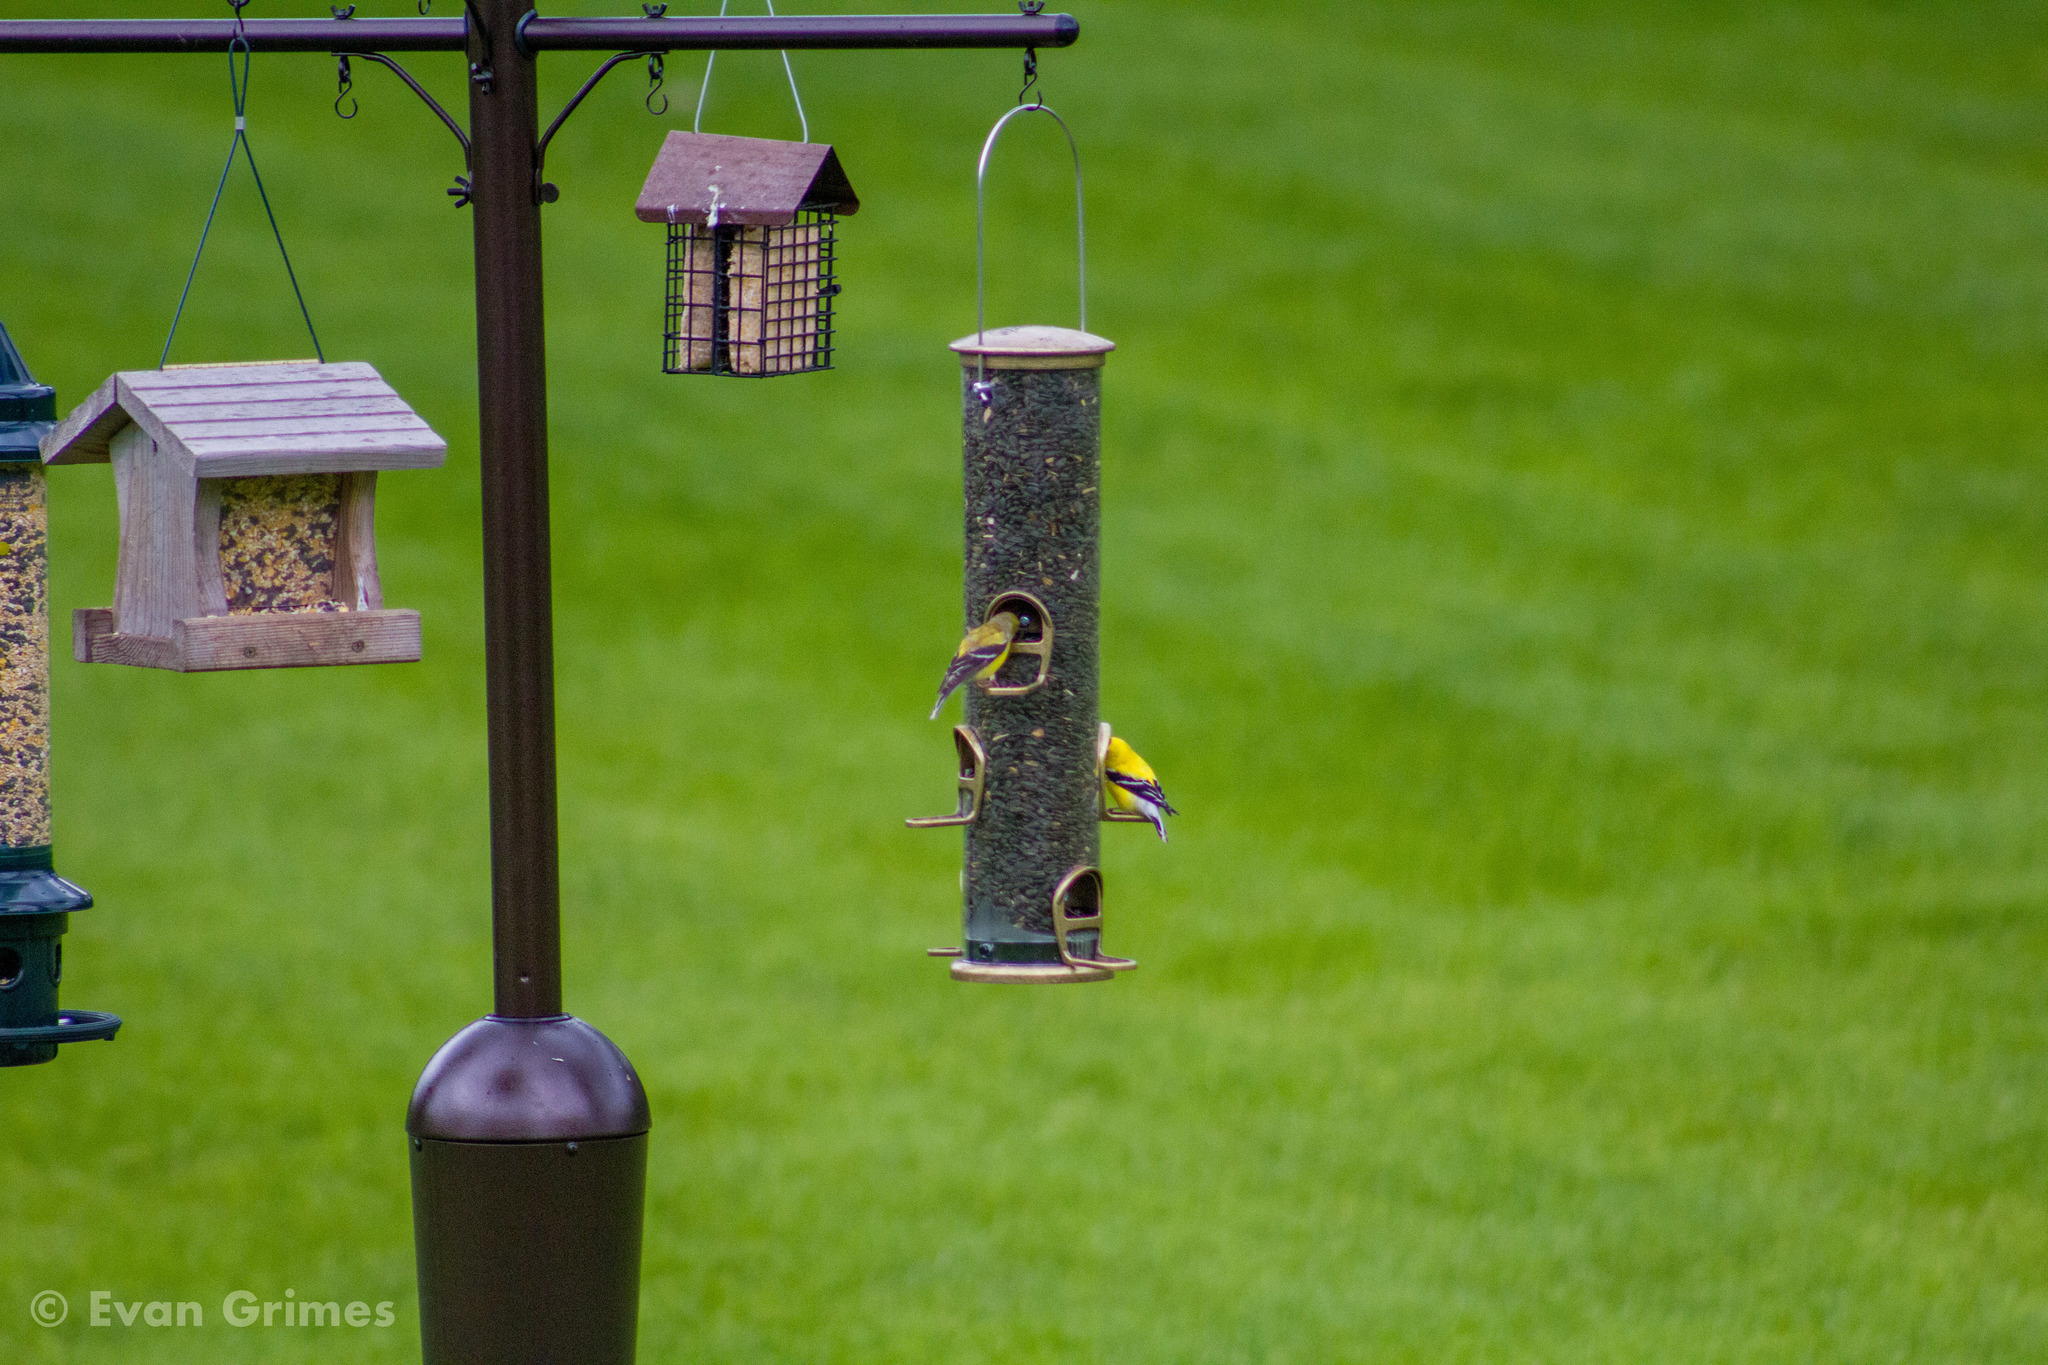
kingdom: Animalia
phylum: Chordata
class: Aves
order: Passeriformes
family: Fringillidae
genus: Spinus
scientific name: Spinus tristis
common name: American goldfinch
